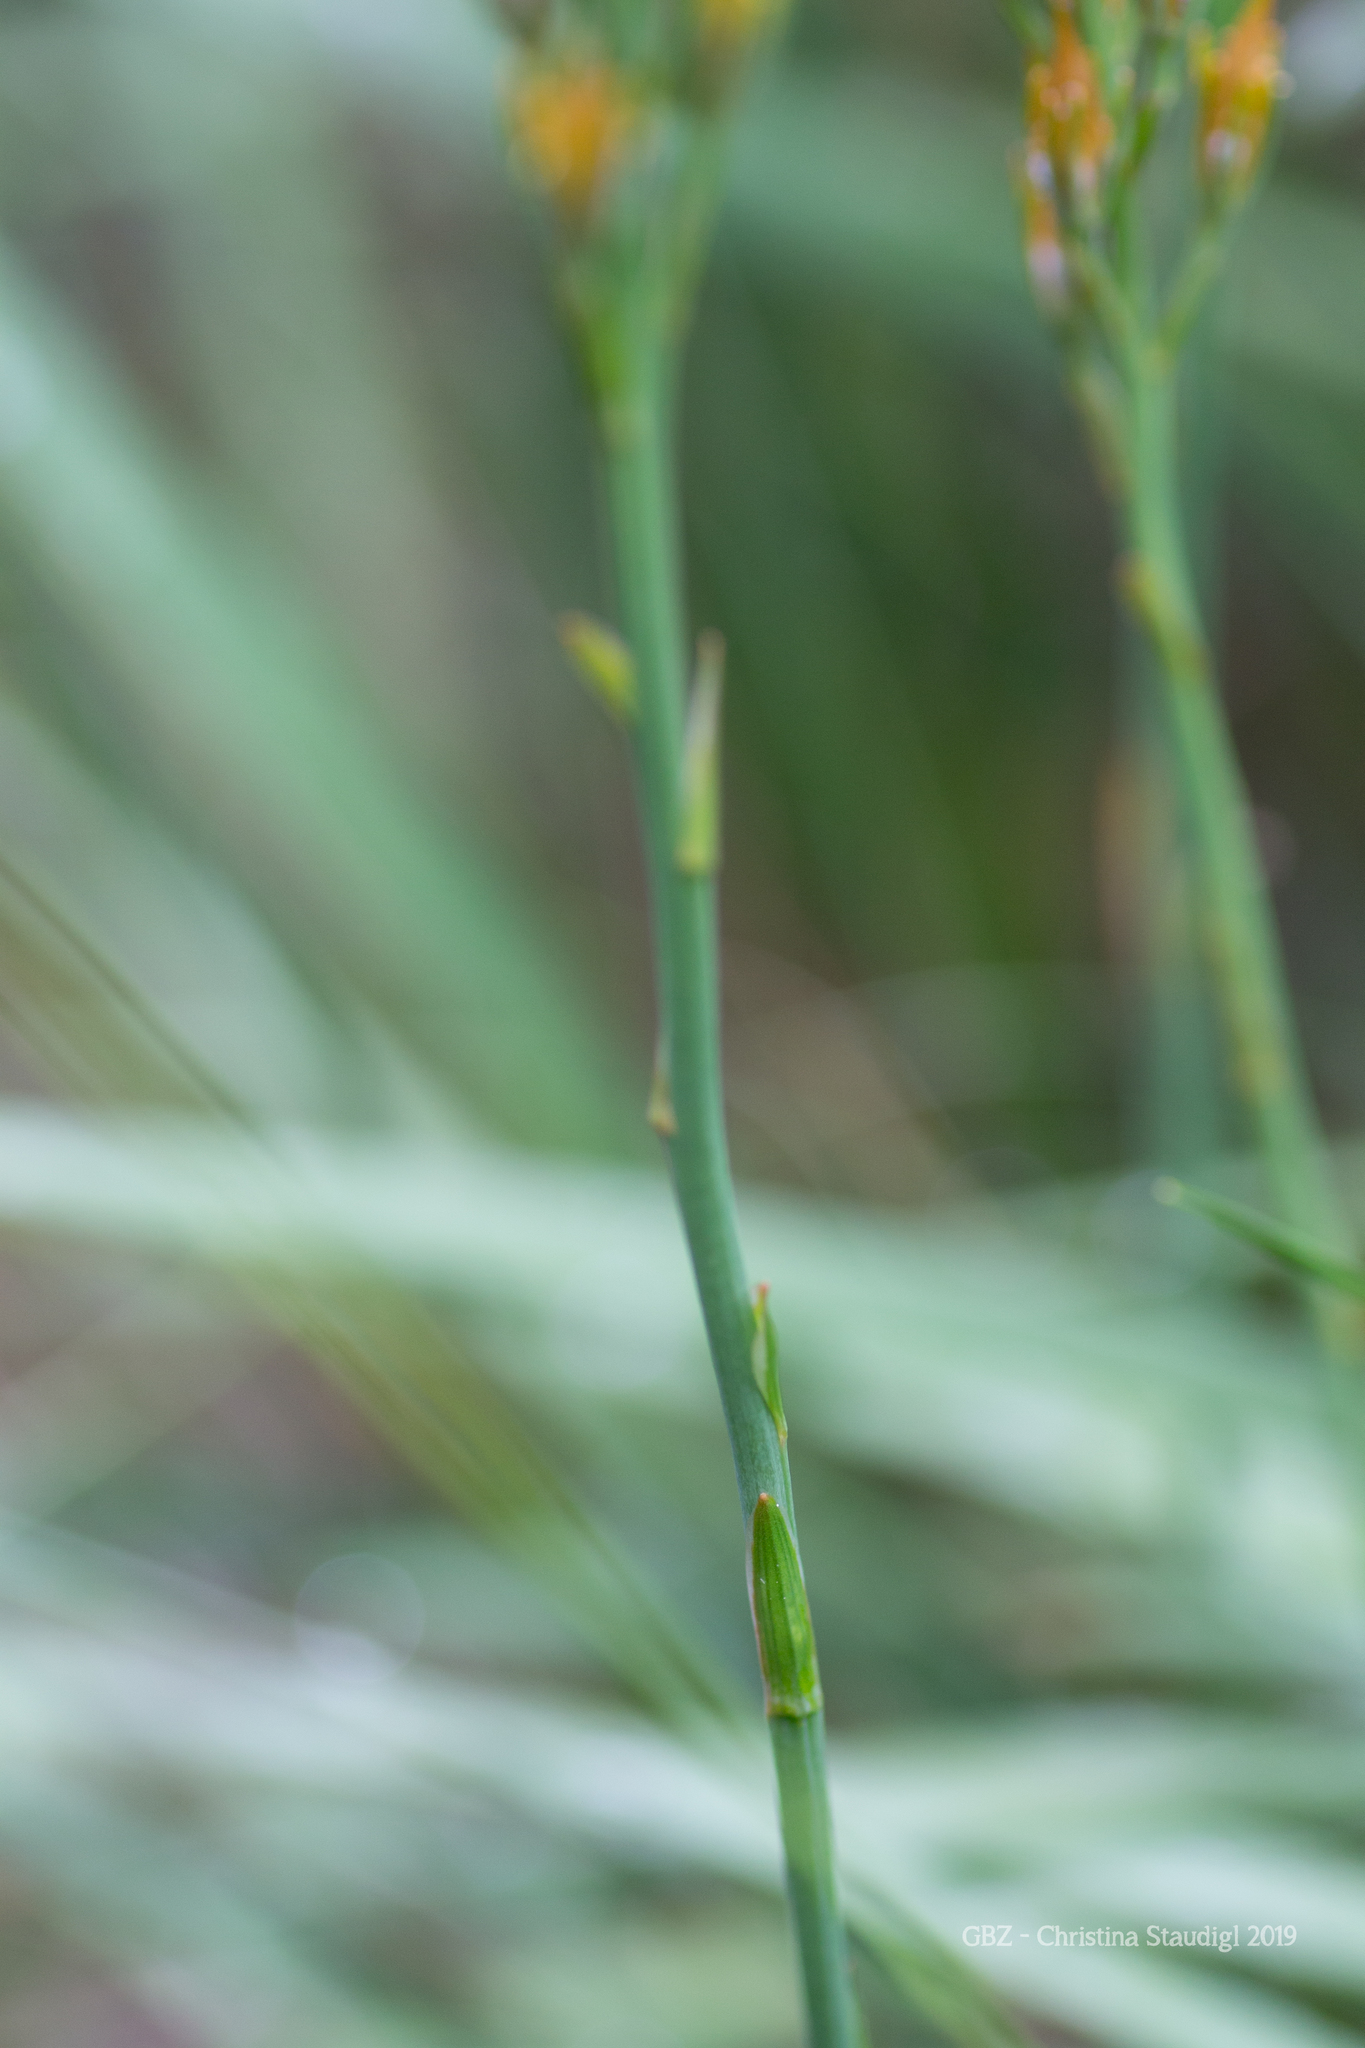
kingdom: Plantae
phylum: Tracheophyta
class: Liliopsida
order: Dioscoreales
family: Nartheciaceae
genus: Narthecium
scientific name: Narthecium ossifragum
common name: Bog asphodel
